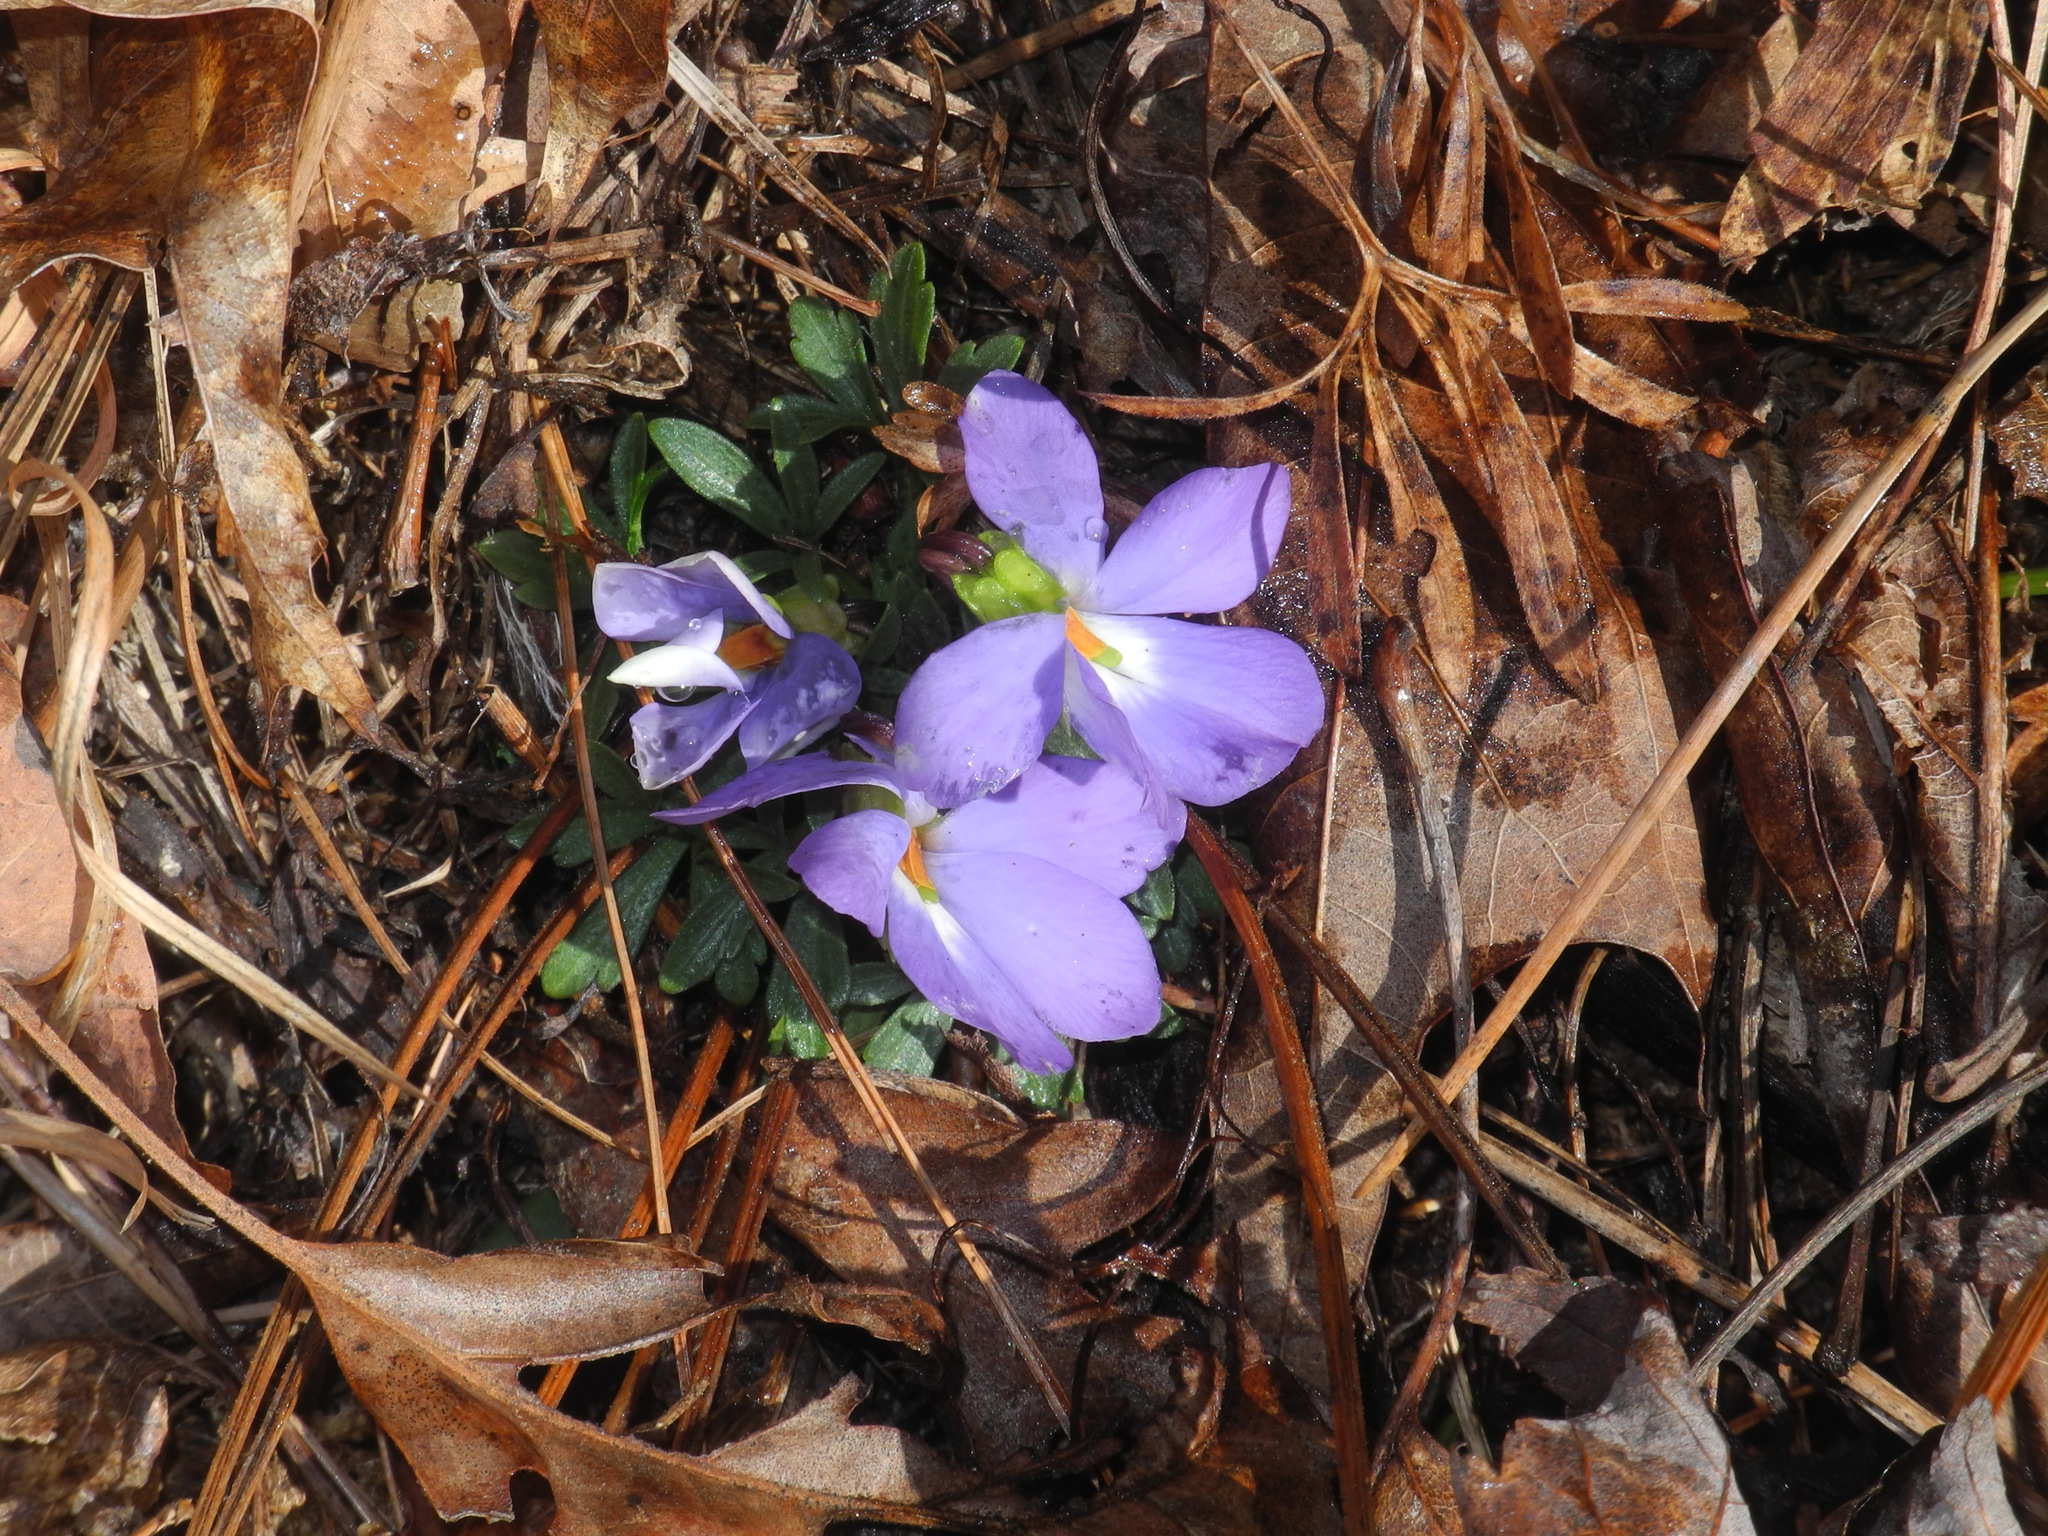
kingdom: Plantae
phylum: Tracheophyta
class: Magnoliopsida
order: Malpighiales
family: Violaceae
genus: Viola
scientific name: Viola pedata
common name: Pansy violet
